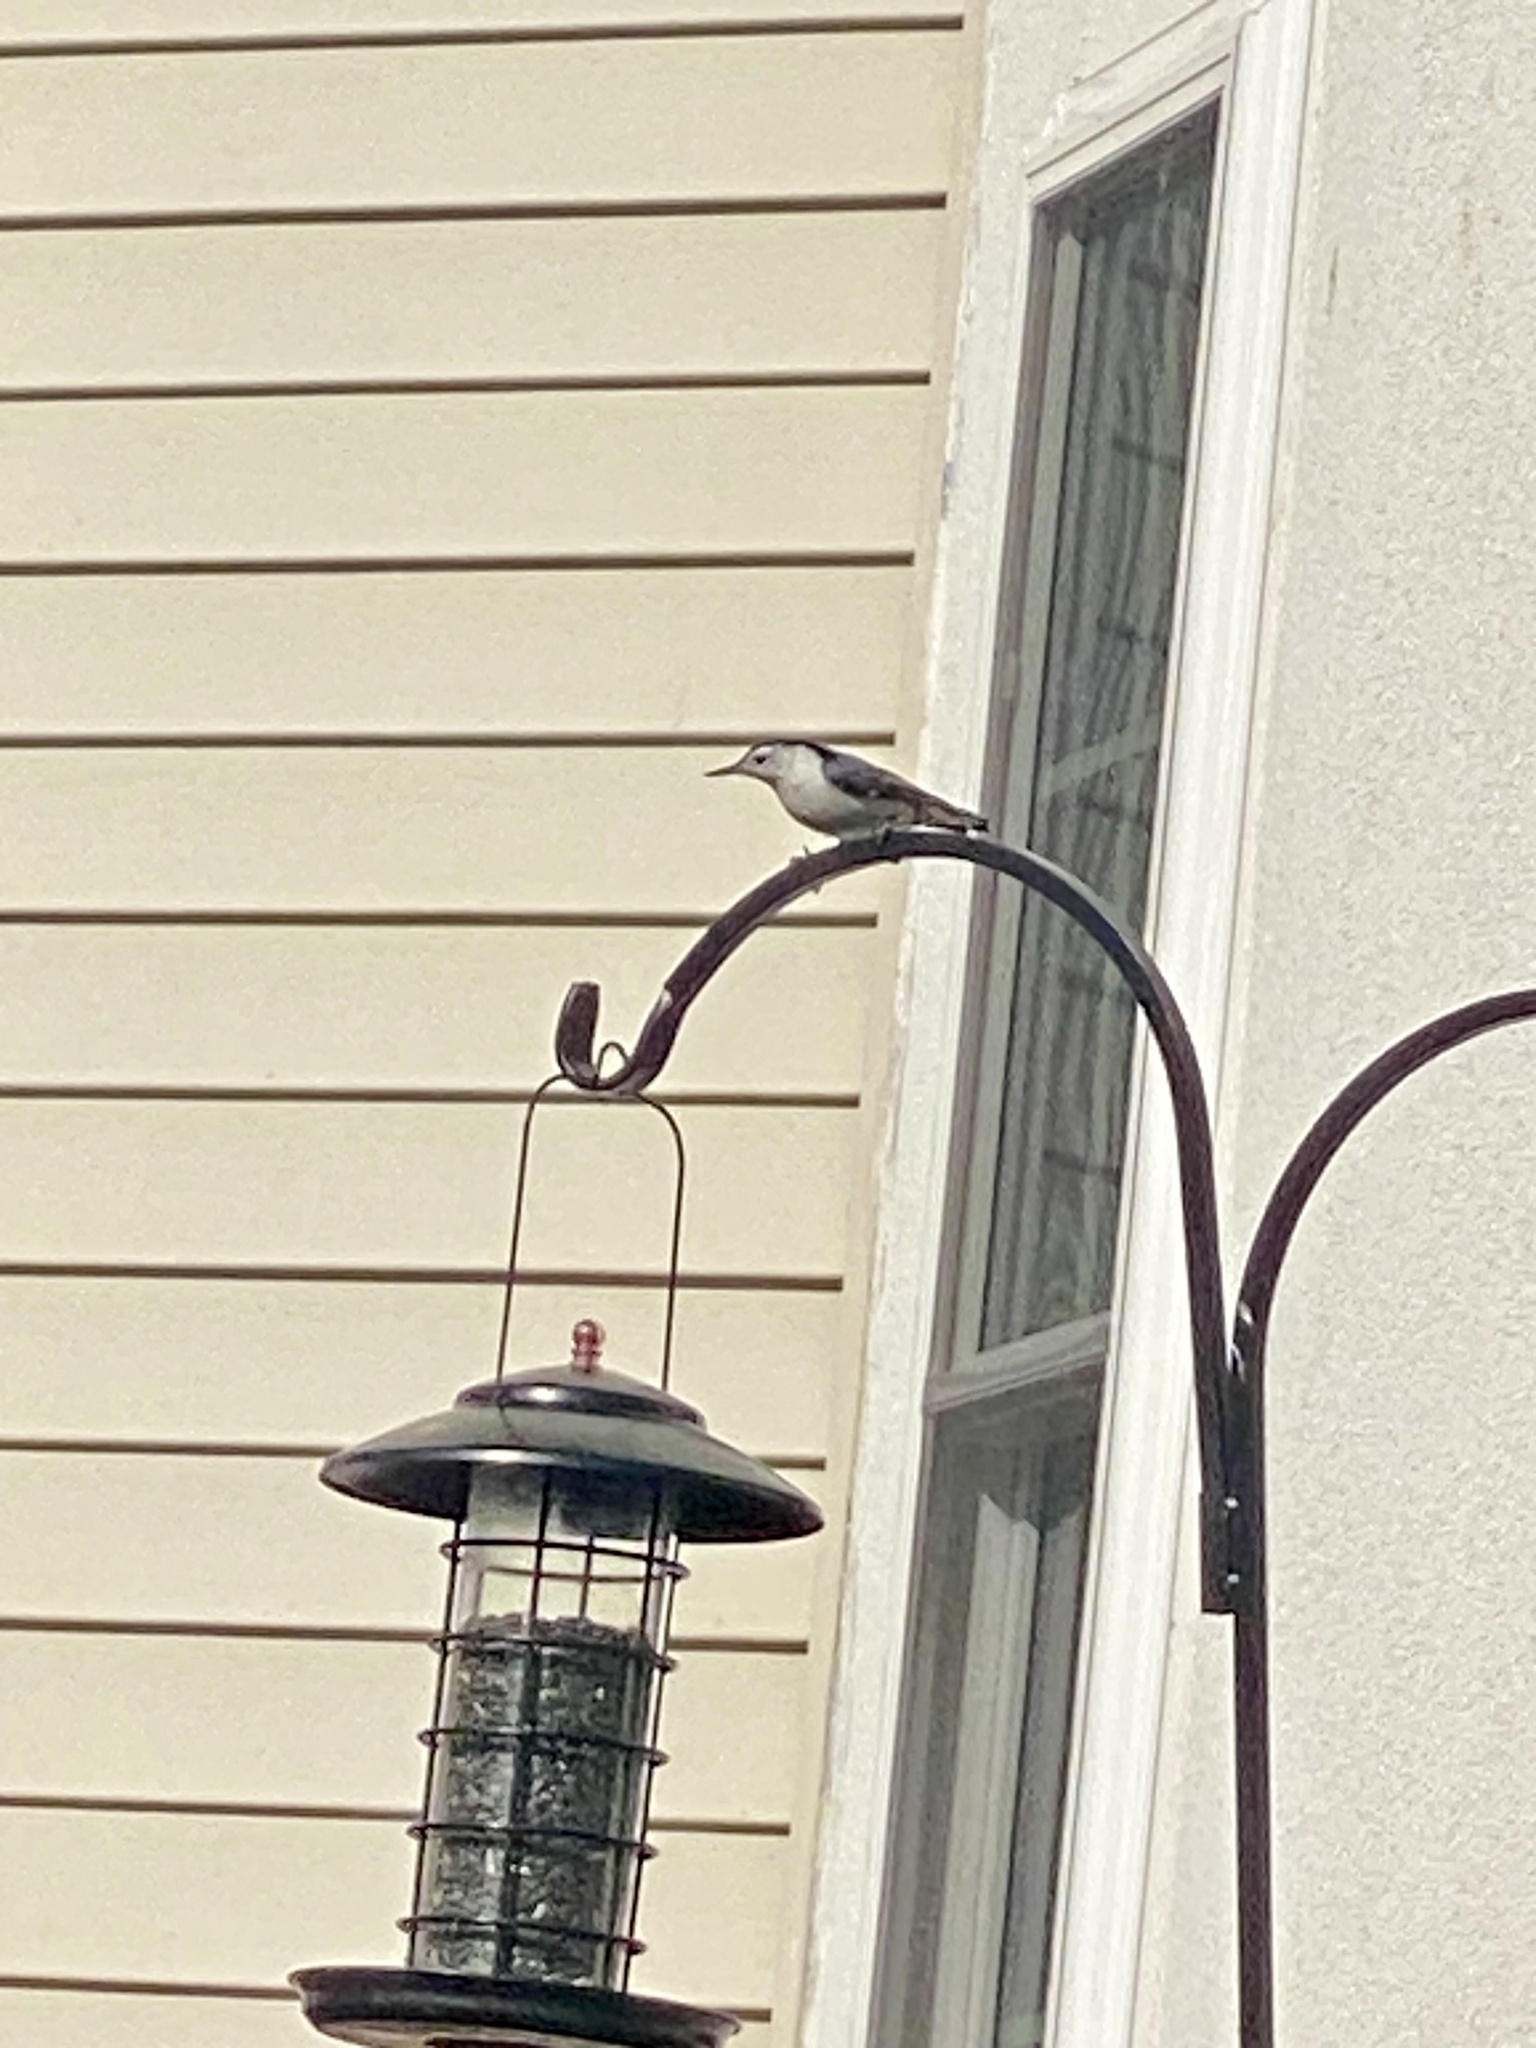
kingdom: Animalia
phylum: Chordata
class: Aves
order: Passeriformes
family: Sittidae
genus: Sitta
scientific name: Sitta carolinensis
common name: White-breasted nuthatch
